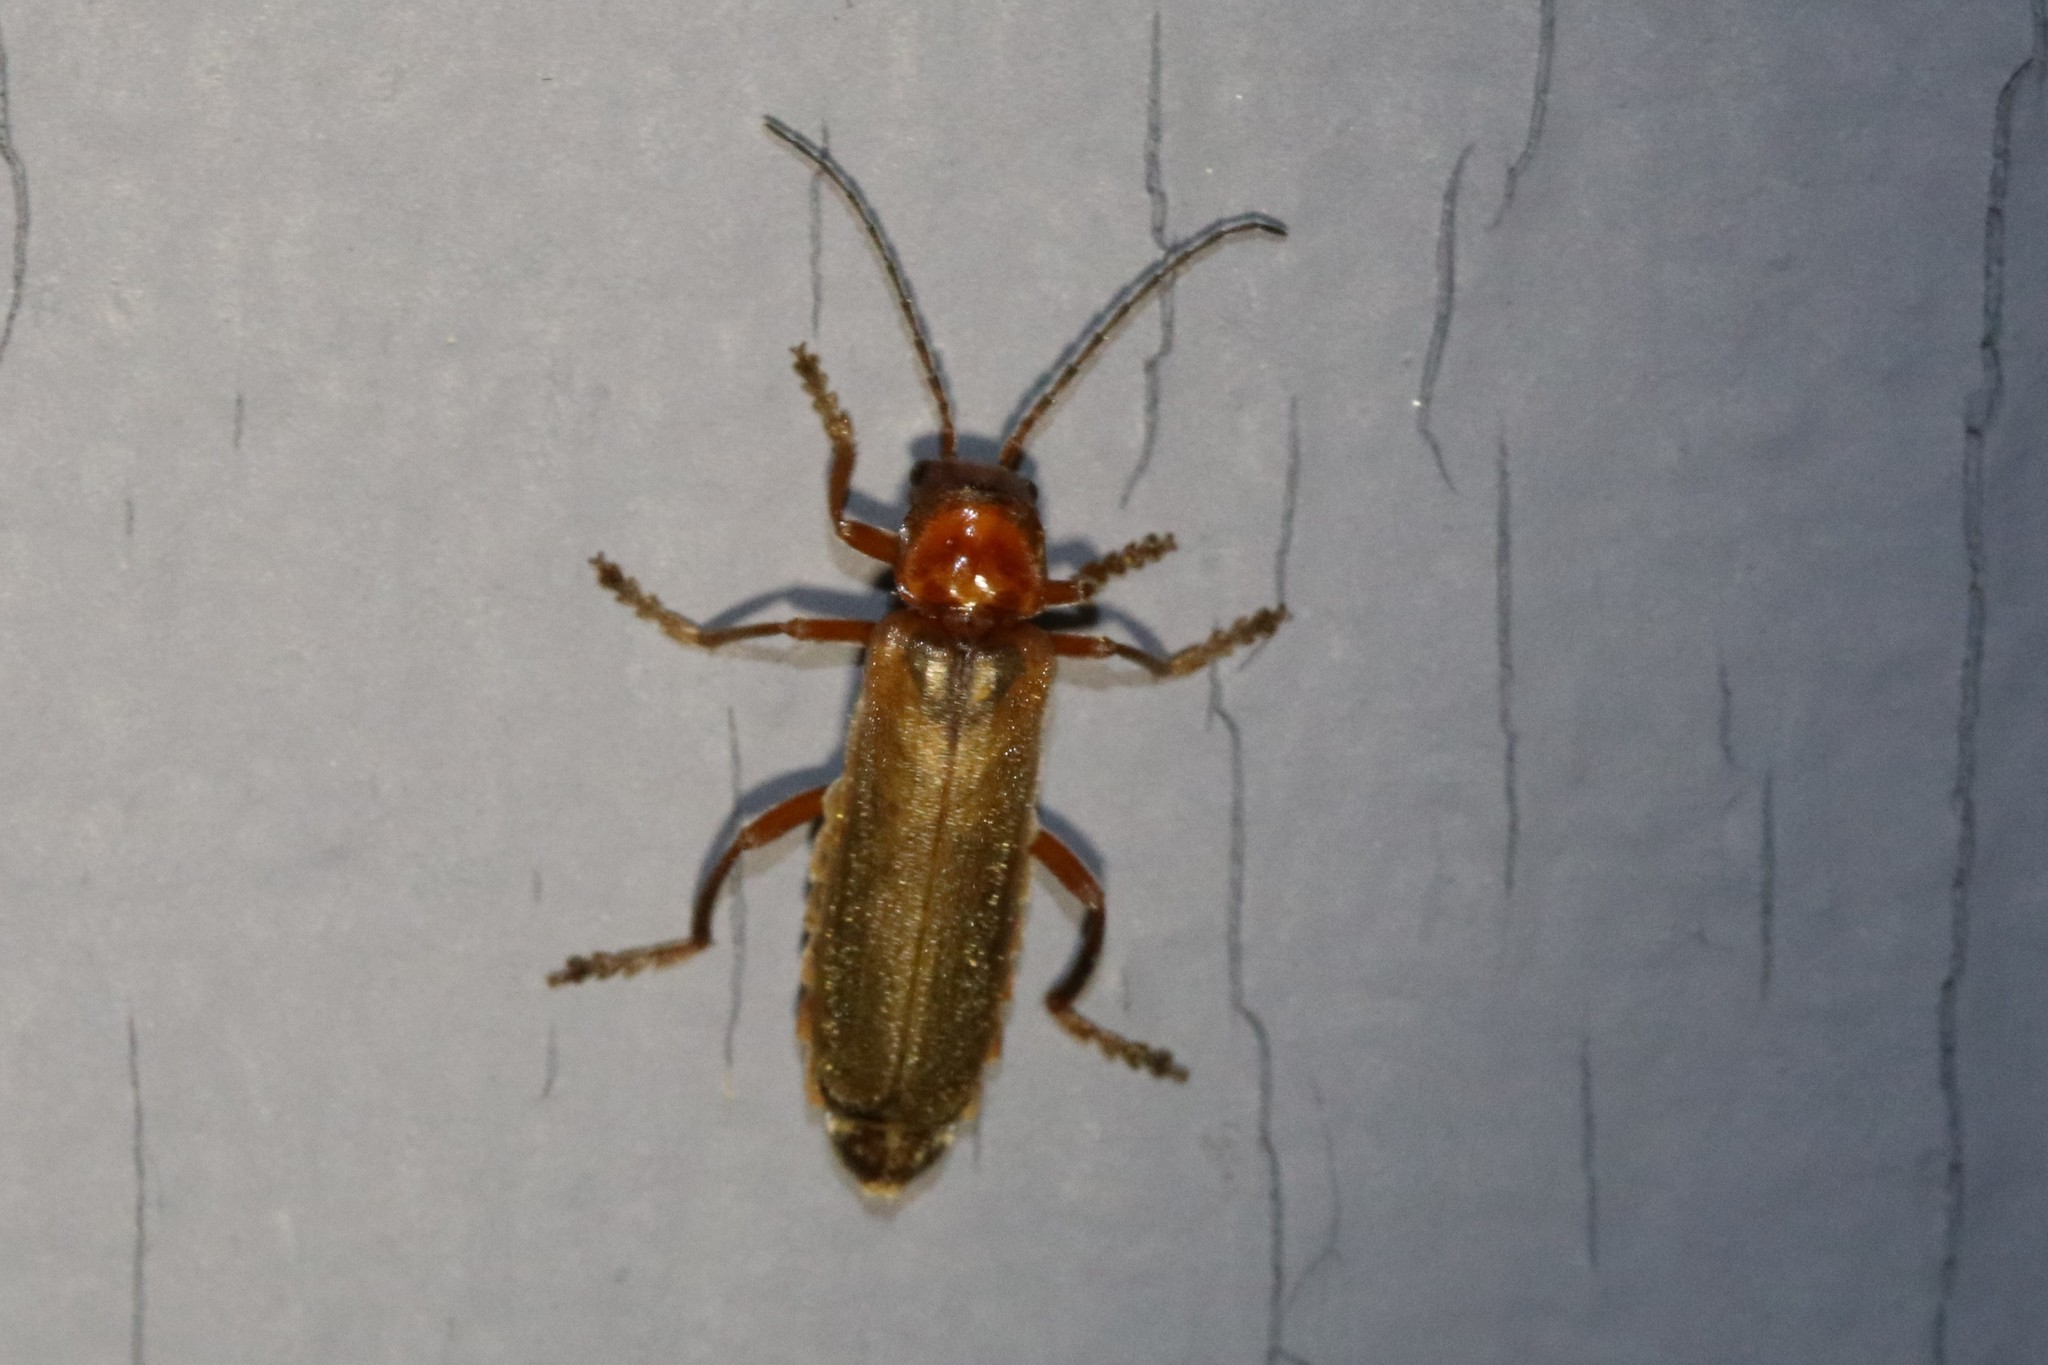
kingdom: Animalia
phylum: Arthropoda
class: Insecta
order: Coleoptera
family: Cantharidae
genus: Cantharis
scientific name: Cantharis rufa
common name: Red-spotted soldier beetle
